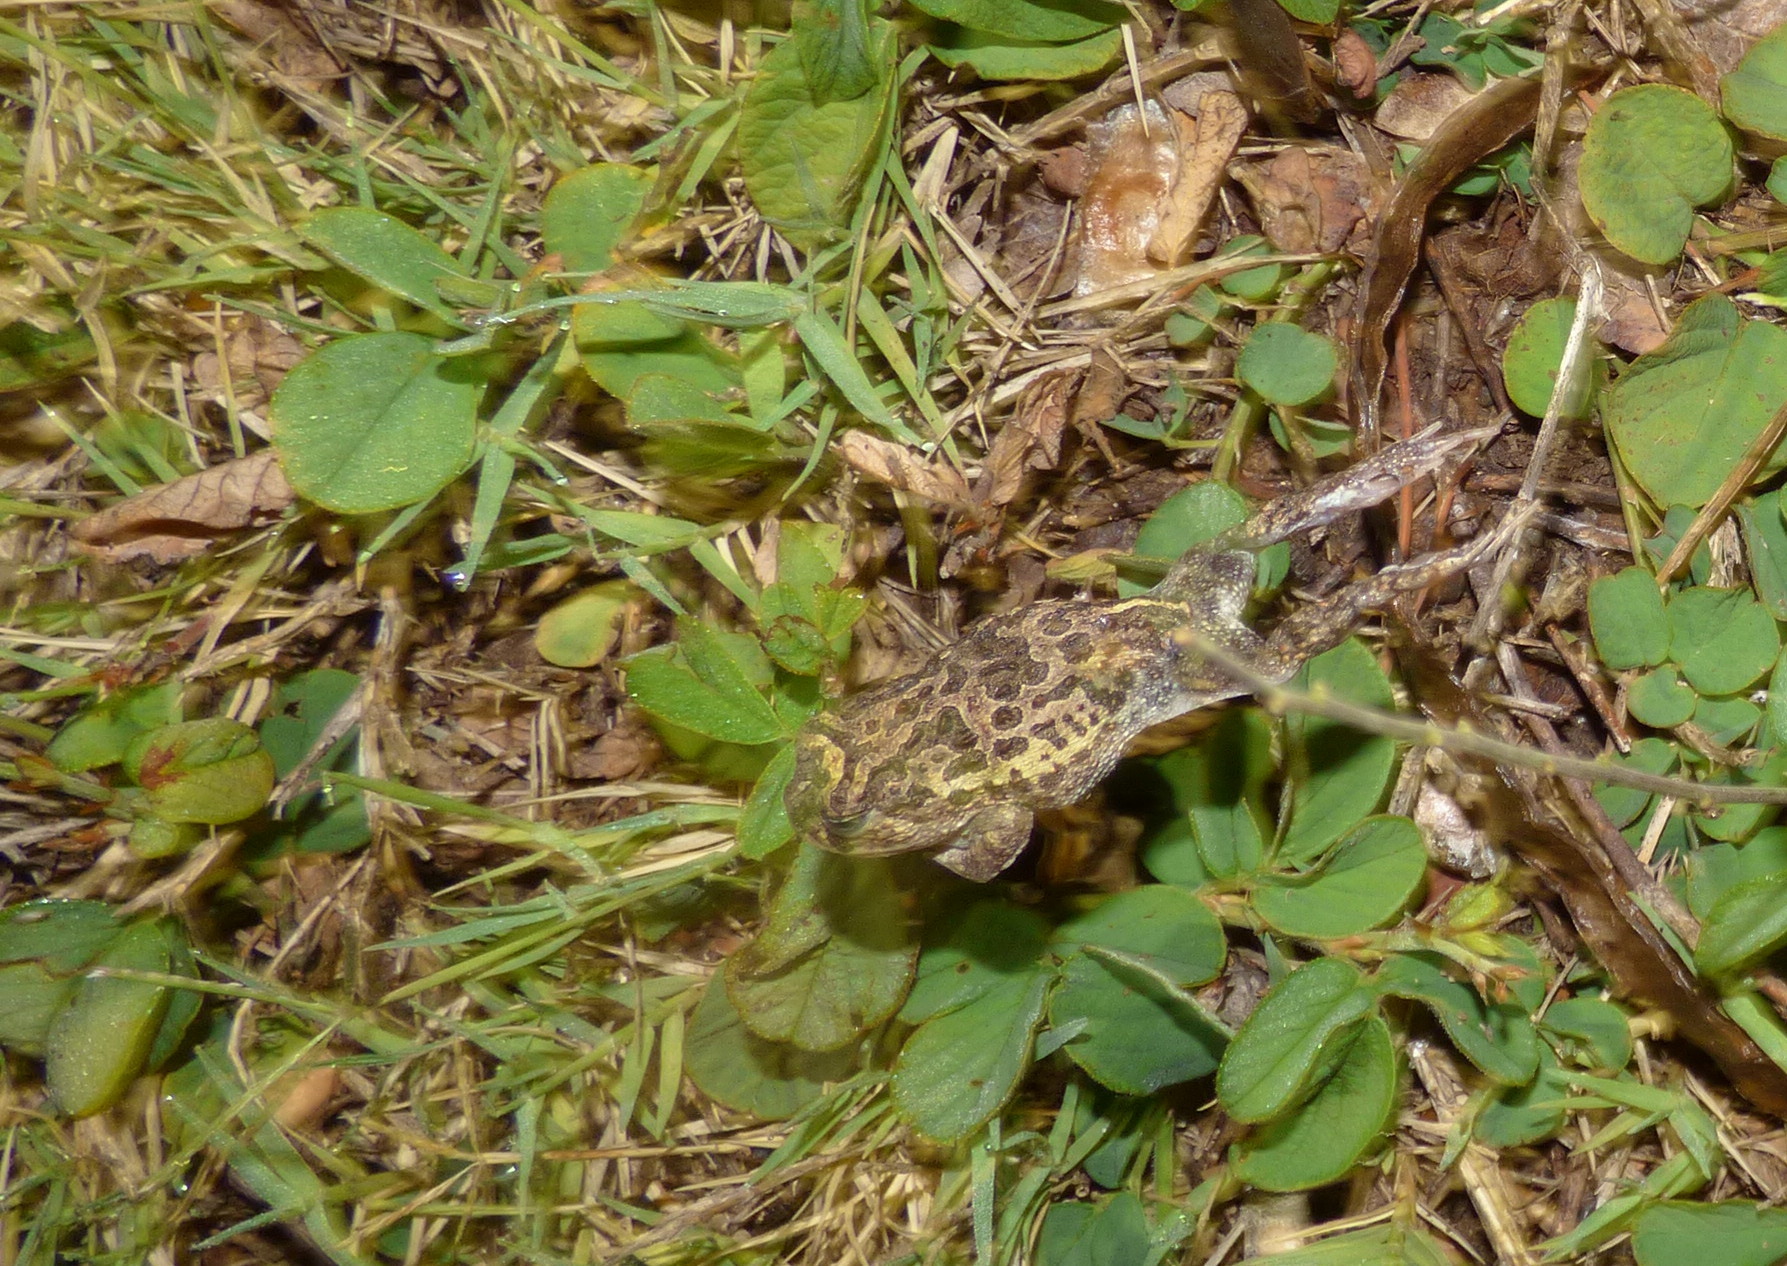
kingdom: Animalia
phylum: Chordata
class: Amphibia
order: Anura
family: Odontophrynidae
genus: Odontophrynus
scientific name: Odontophrynus
